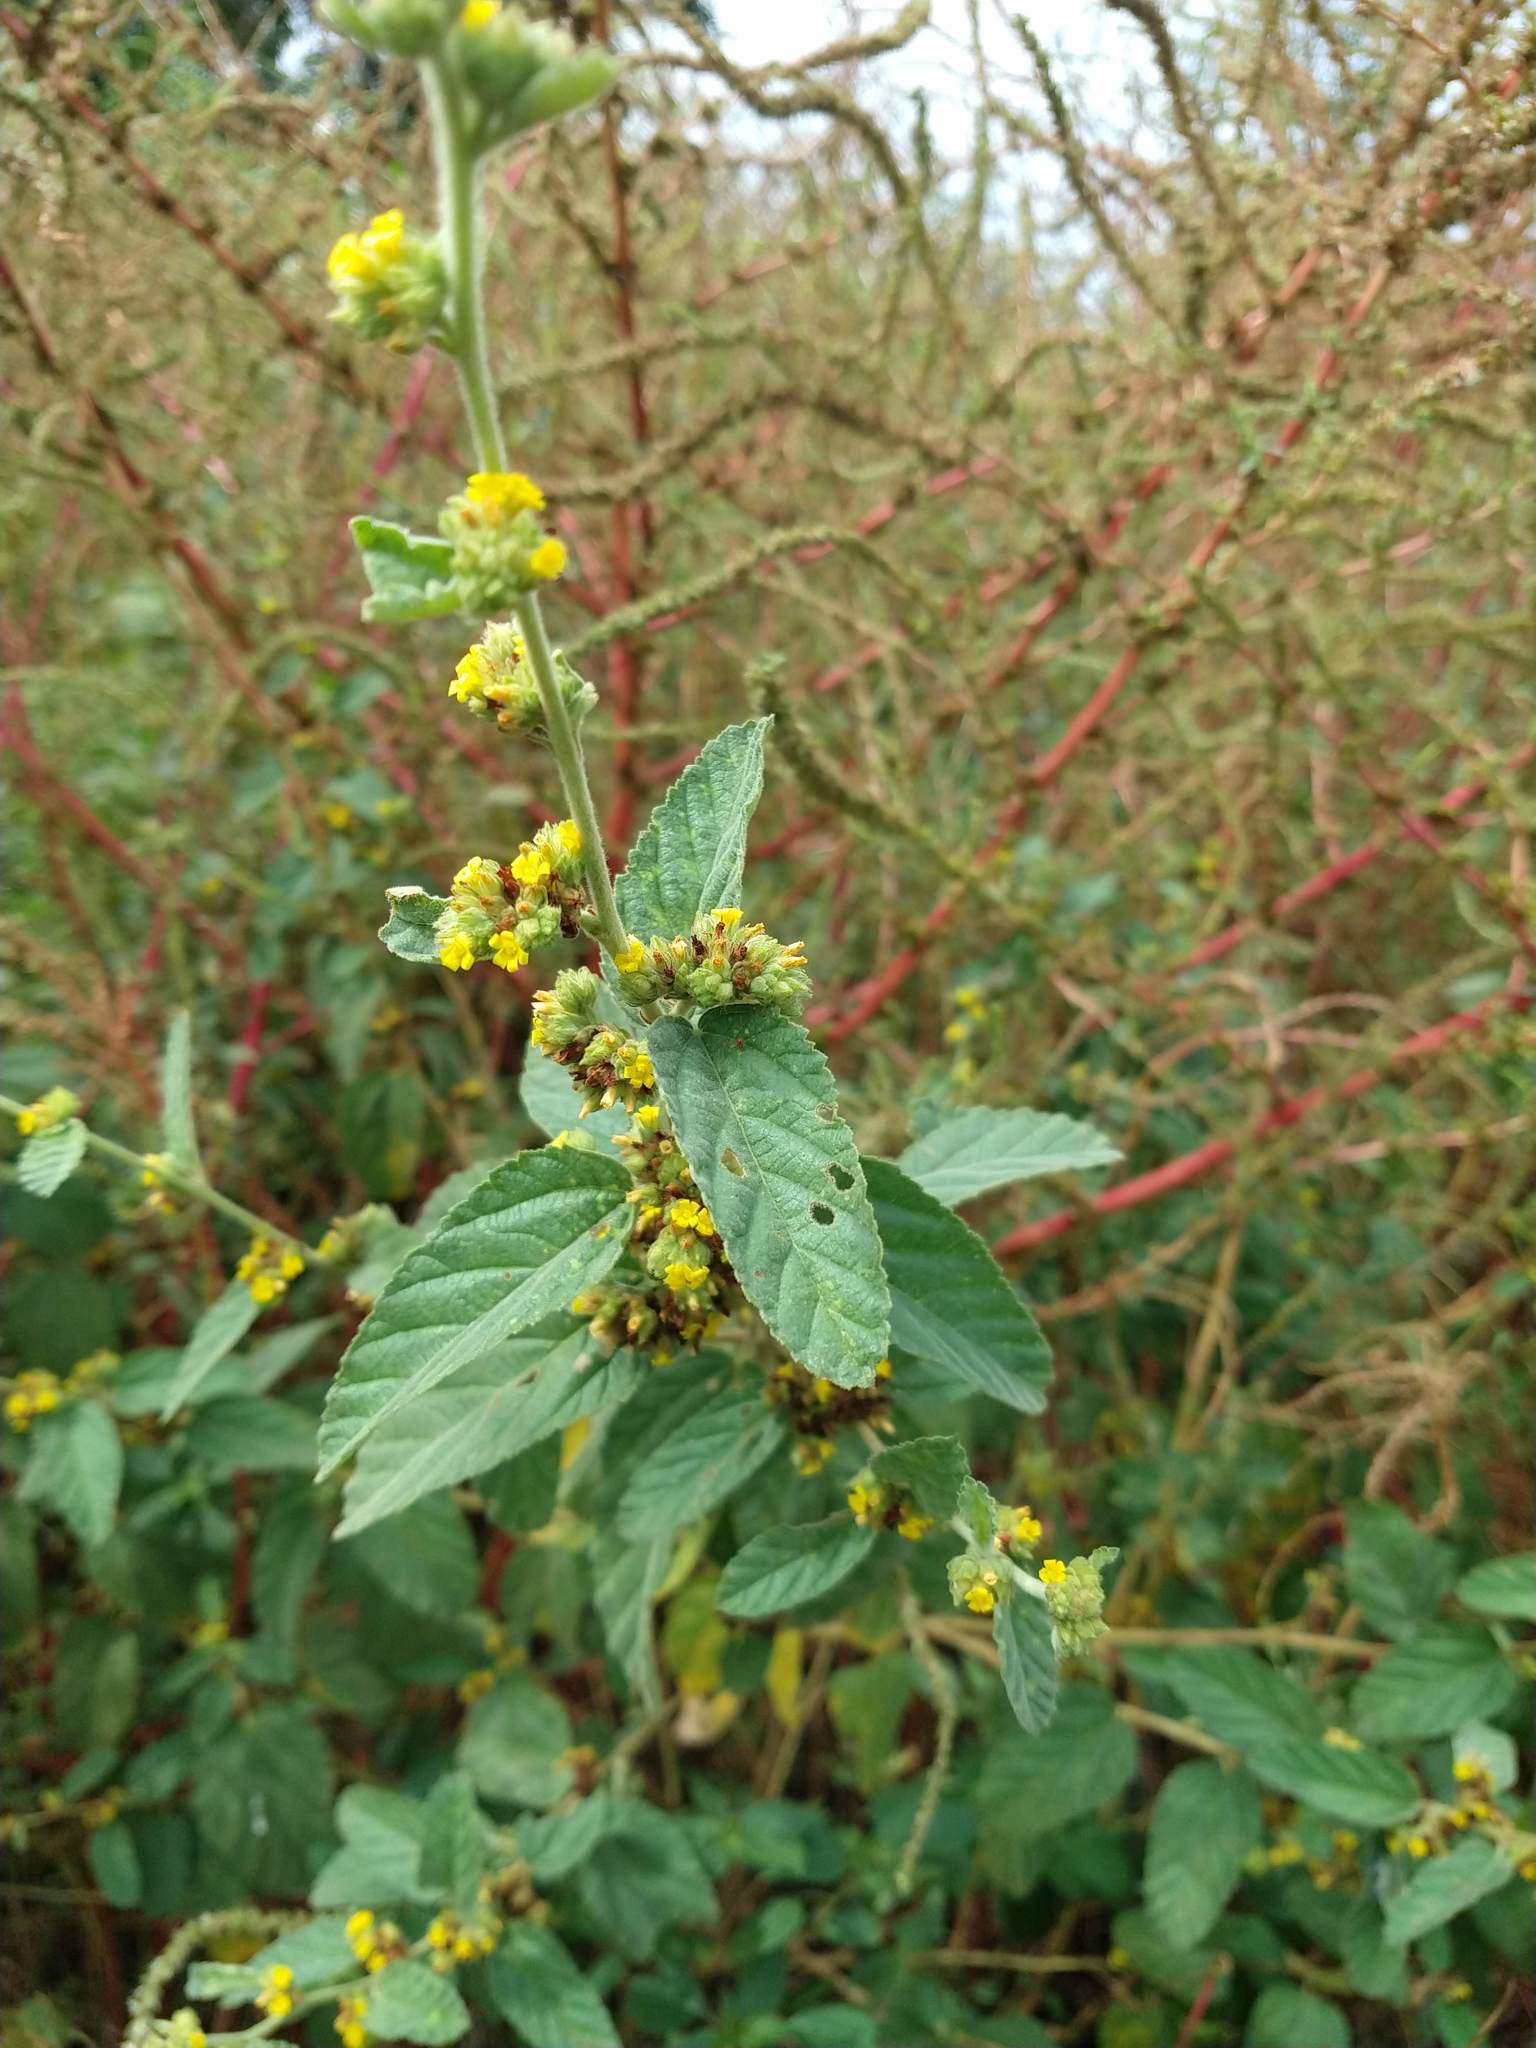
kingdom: Plantae
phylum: Tracheophyta
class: Magnoliopsida
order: Malvales
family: Malvaceae
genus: Waltheria
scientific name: Waltheria indica
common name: Leather-coat
